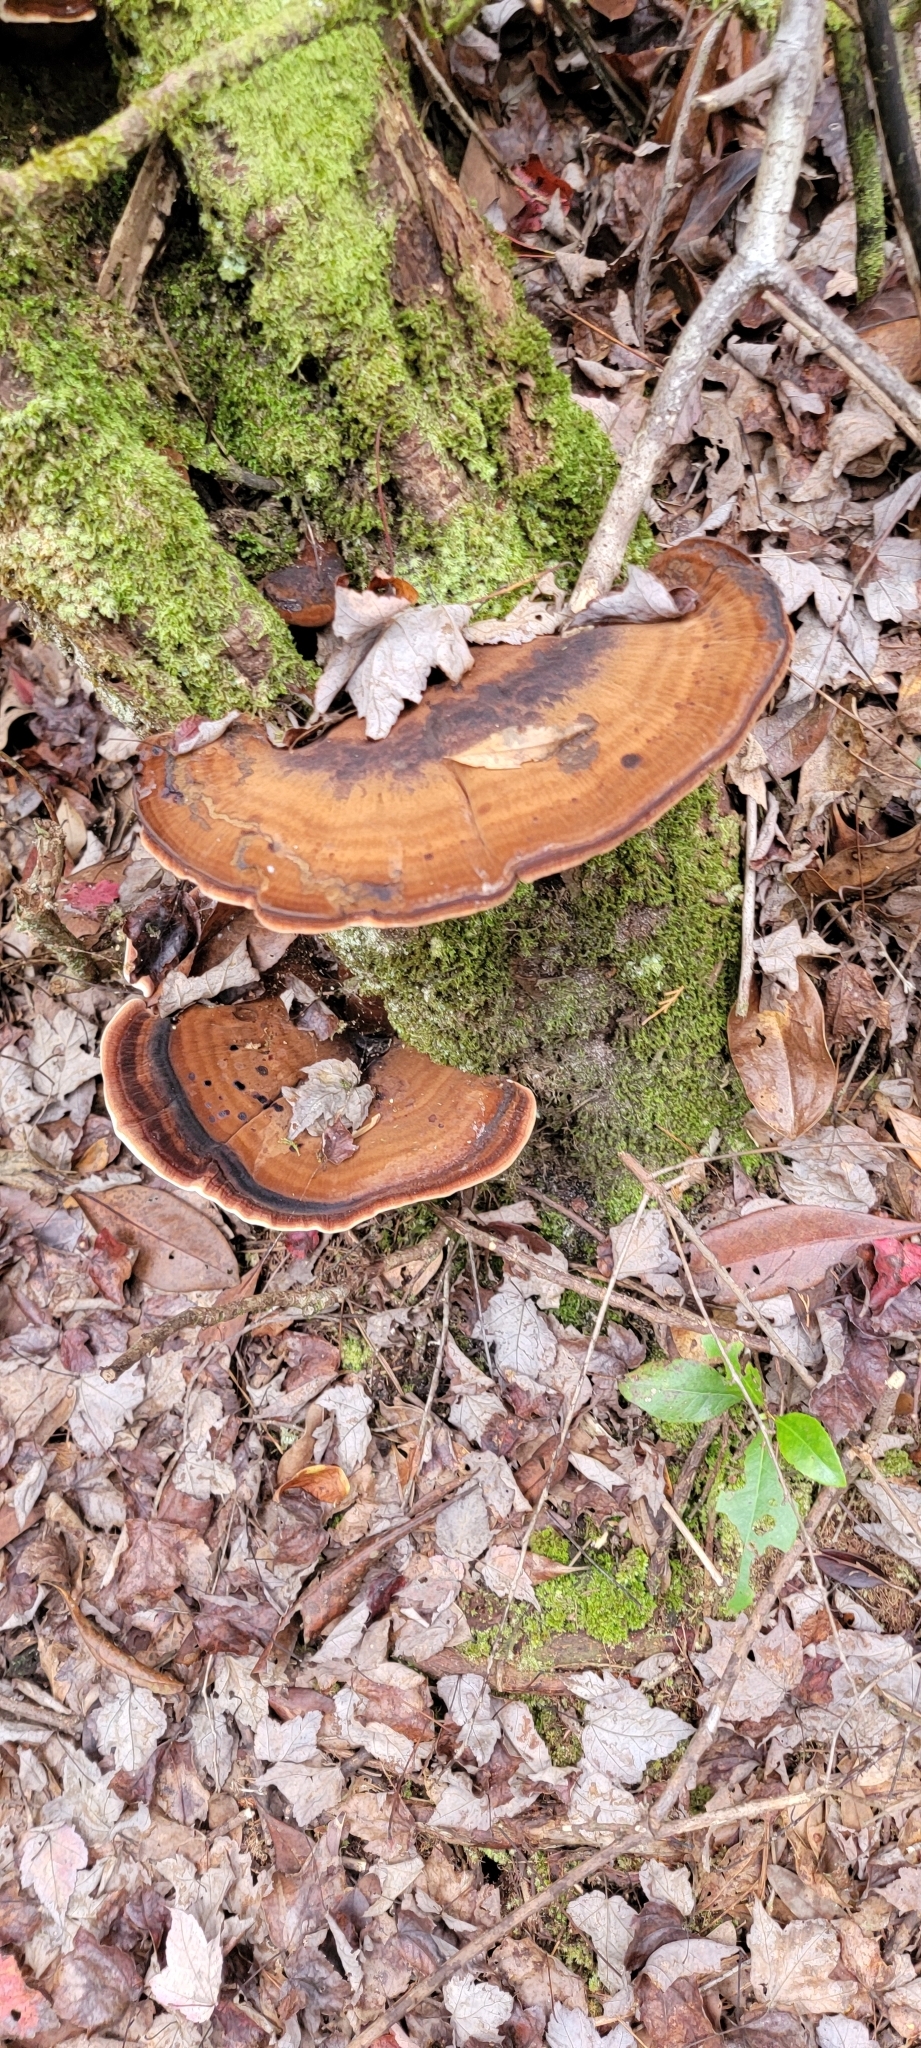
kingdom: Fungi
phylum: Basidiomycota
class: Agaricomycetes
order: Polyporales
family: Ischnodermataceae
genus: Ischnoderma
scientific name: Ischnoderma resinosum
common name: Resinous polypore
